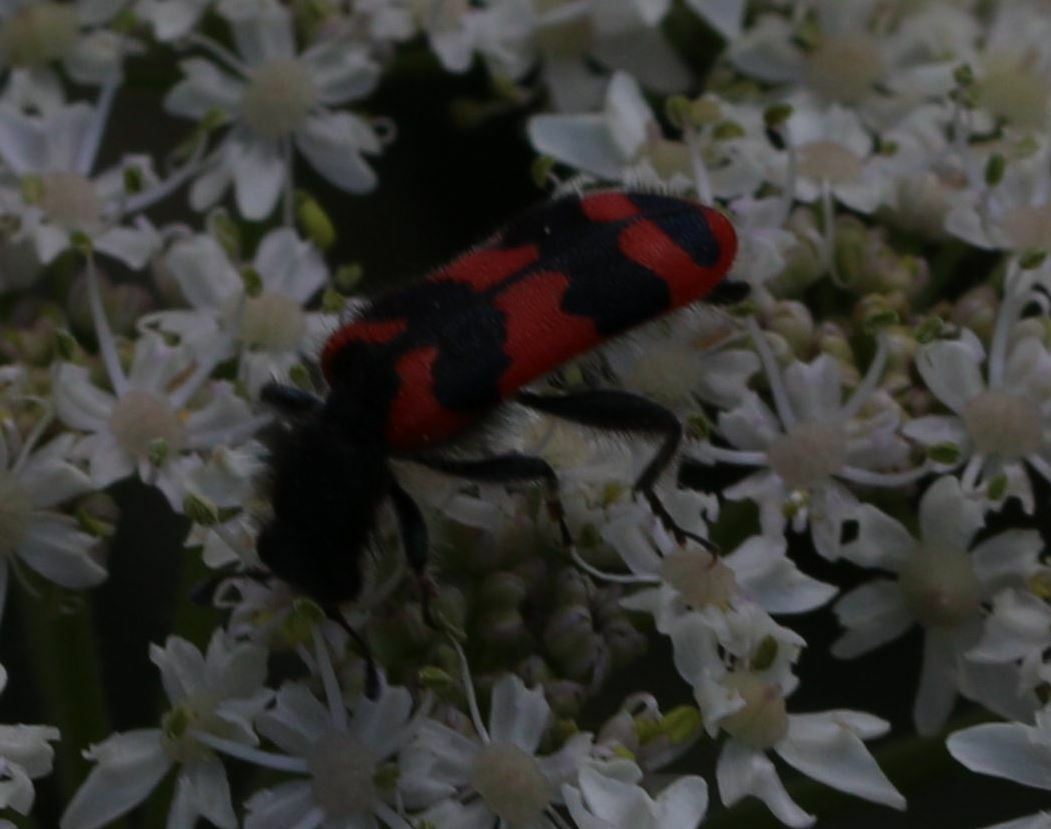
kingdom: Animalia
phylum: Arthropoda
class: Insecta
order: Coleoptera
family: Cleridae
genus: Trichodes
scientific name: Trichodes apiarius
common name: Bee-eating beetle
